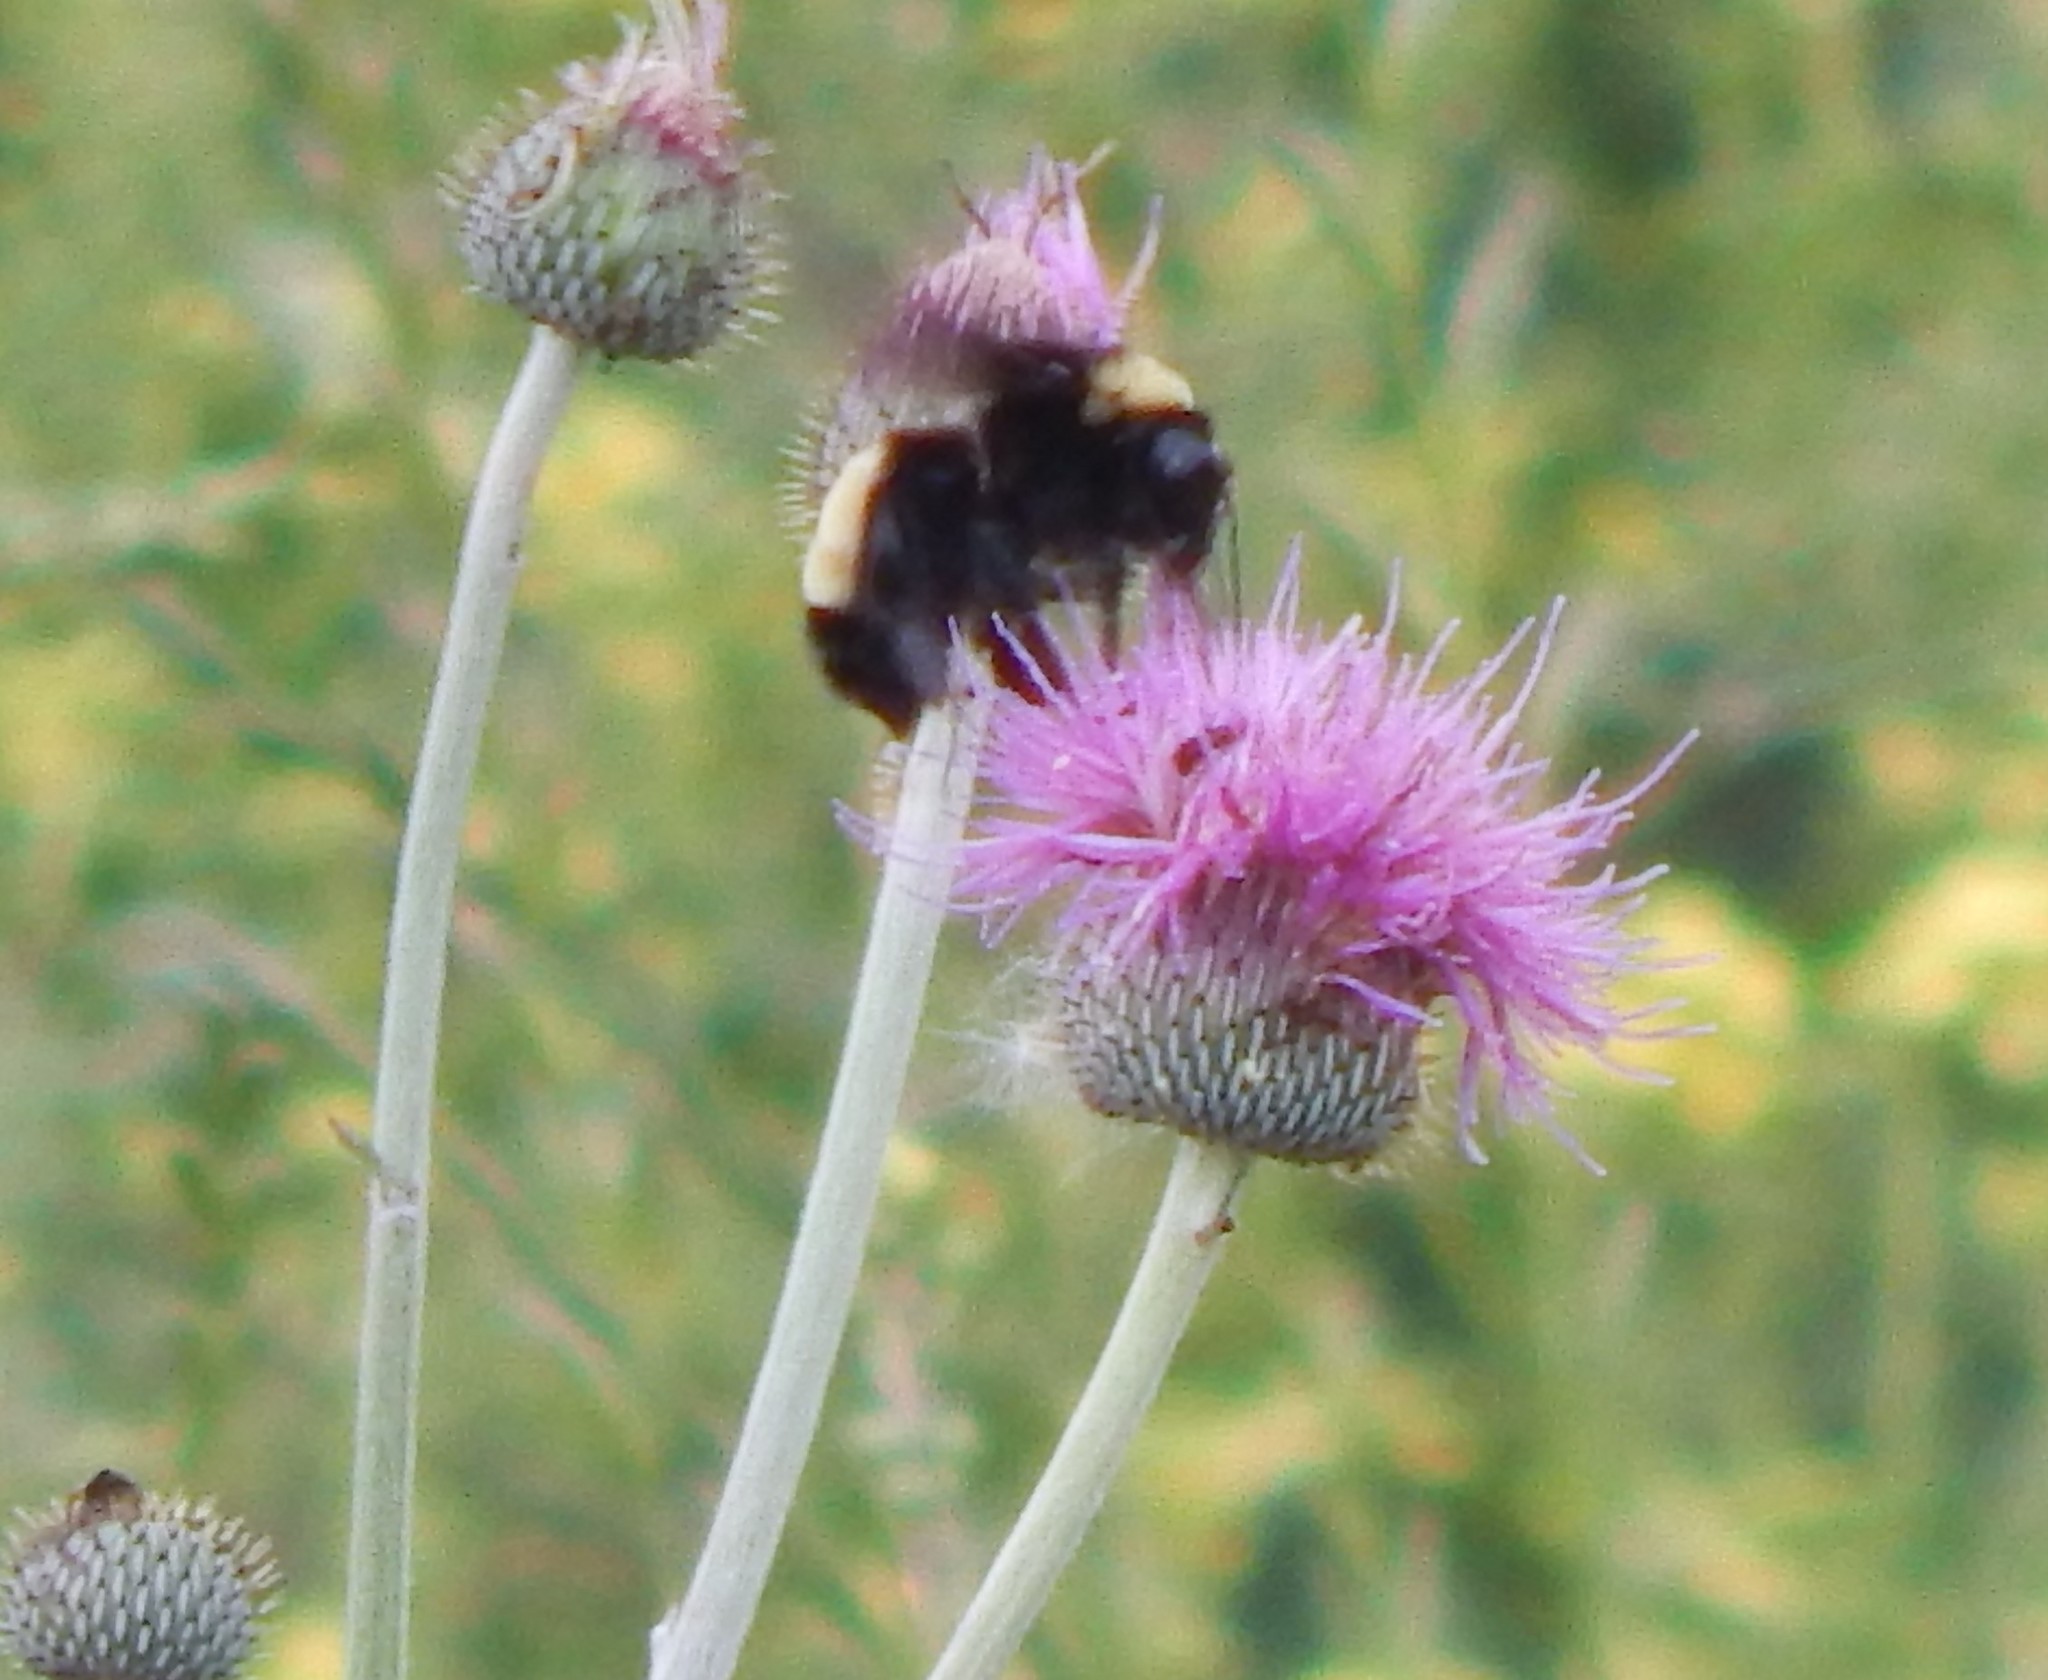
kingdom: Animalia
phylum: Arthropoda
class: Insecta
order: Hymenoptera
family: Apidae
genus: Bombus
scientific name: Bombus pensylvanicus
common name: Bumble bee
